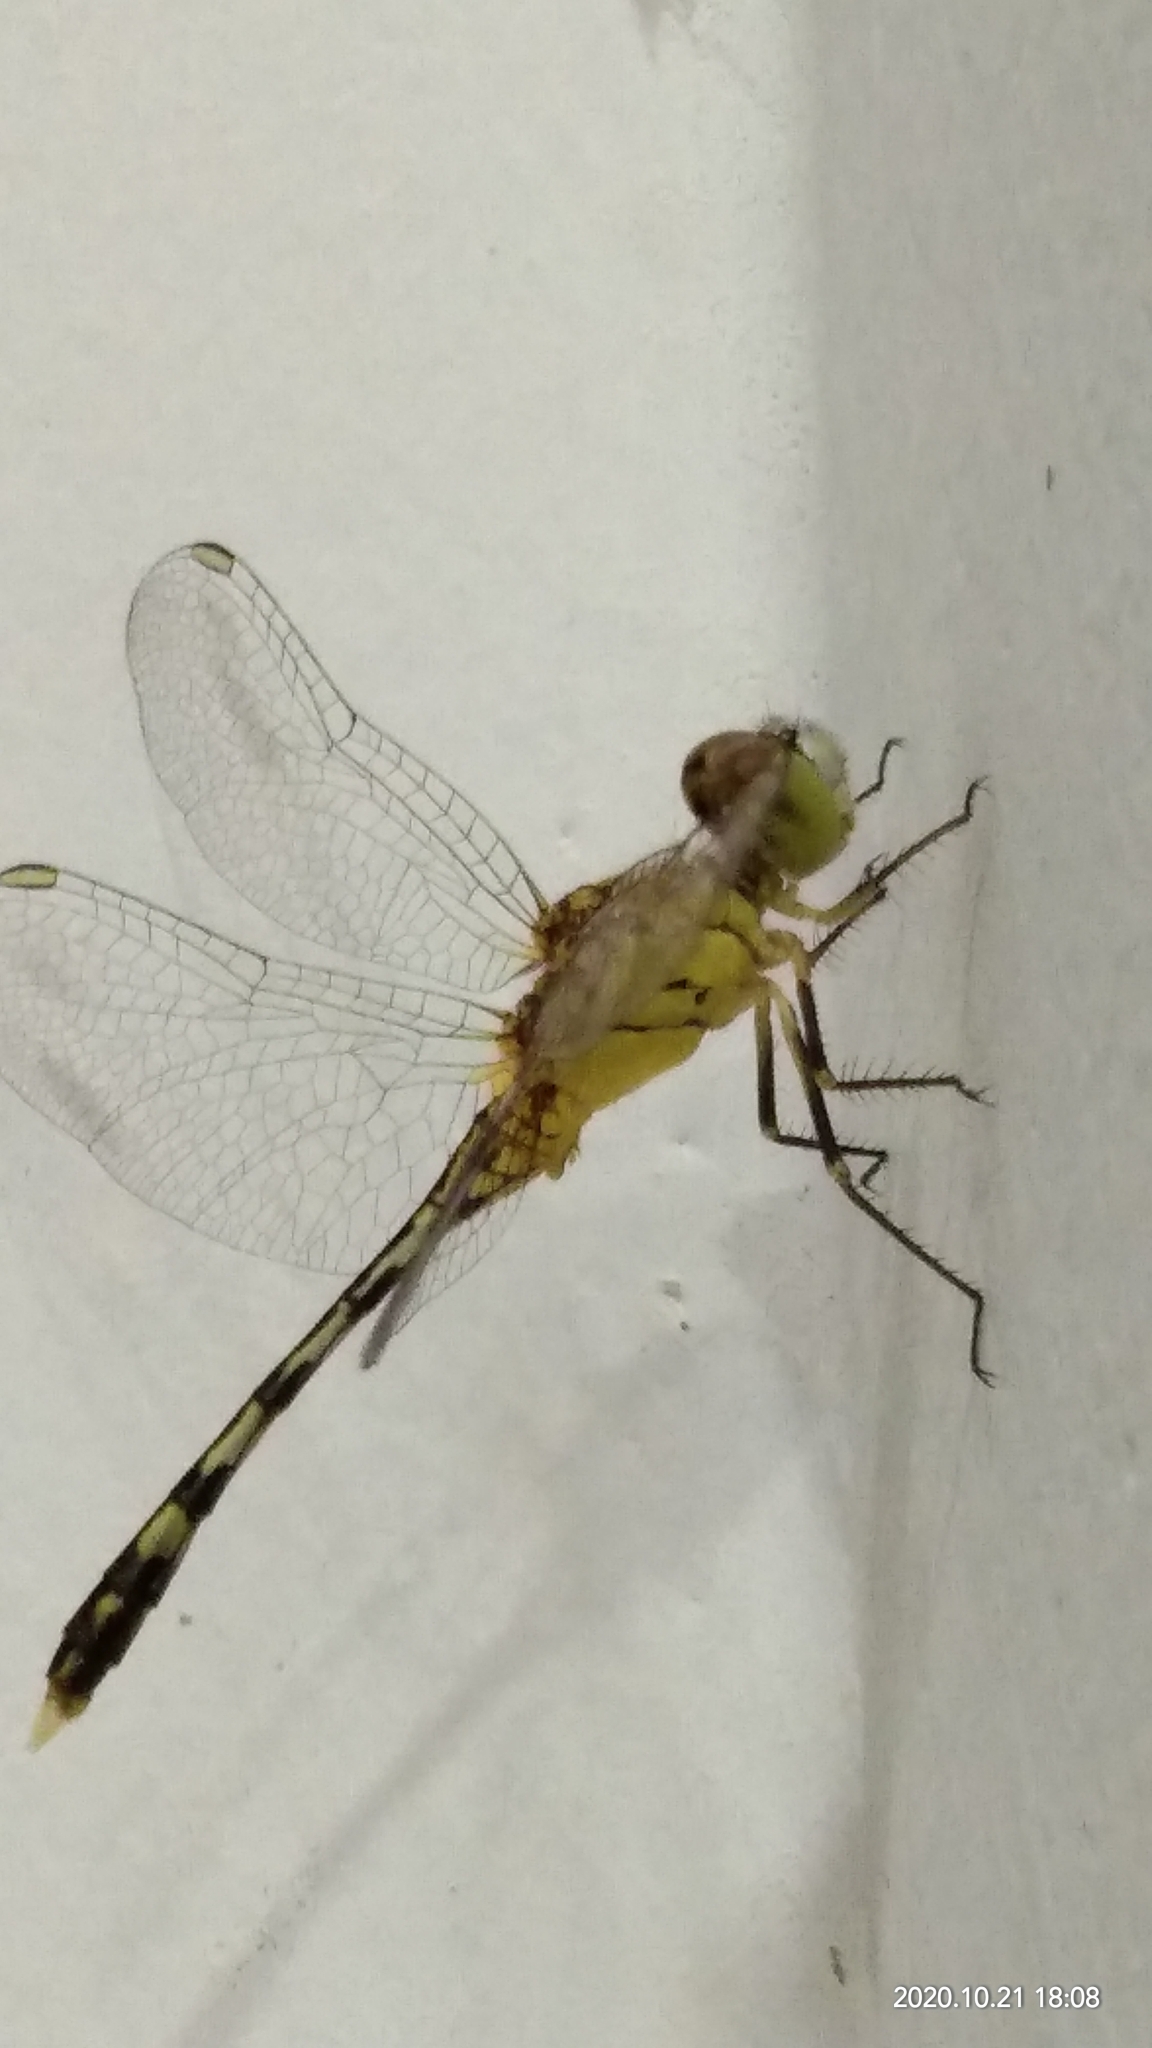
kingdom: Animalia
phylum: Arthropoda
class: Insecta
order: Odonata
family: Libellulidae
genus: Diplacodes
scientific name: Diplacodes trivialis
